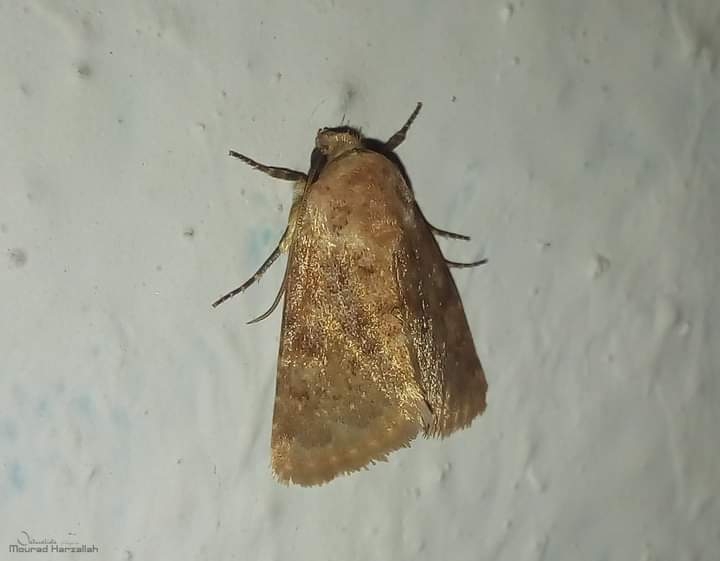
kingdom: Animalia
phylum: Arthropoda
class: Insecta
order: Lepidoptera
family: Noctuidae
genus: Charanyca
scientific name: Charanyca ferruginea
